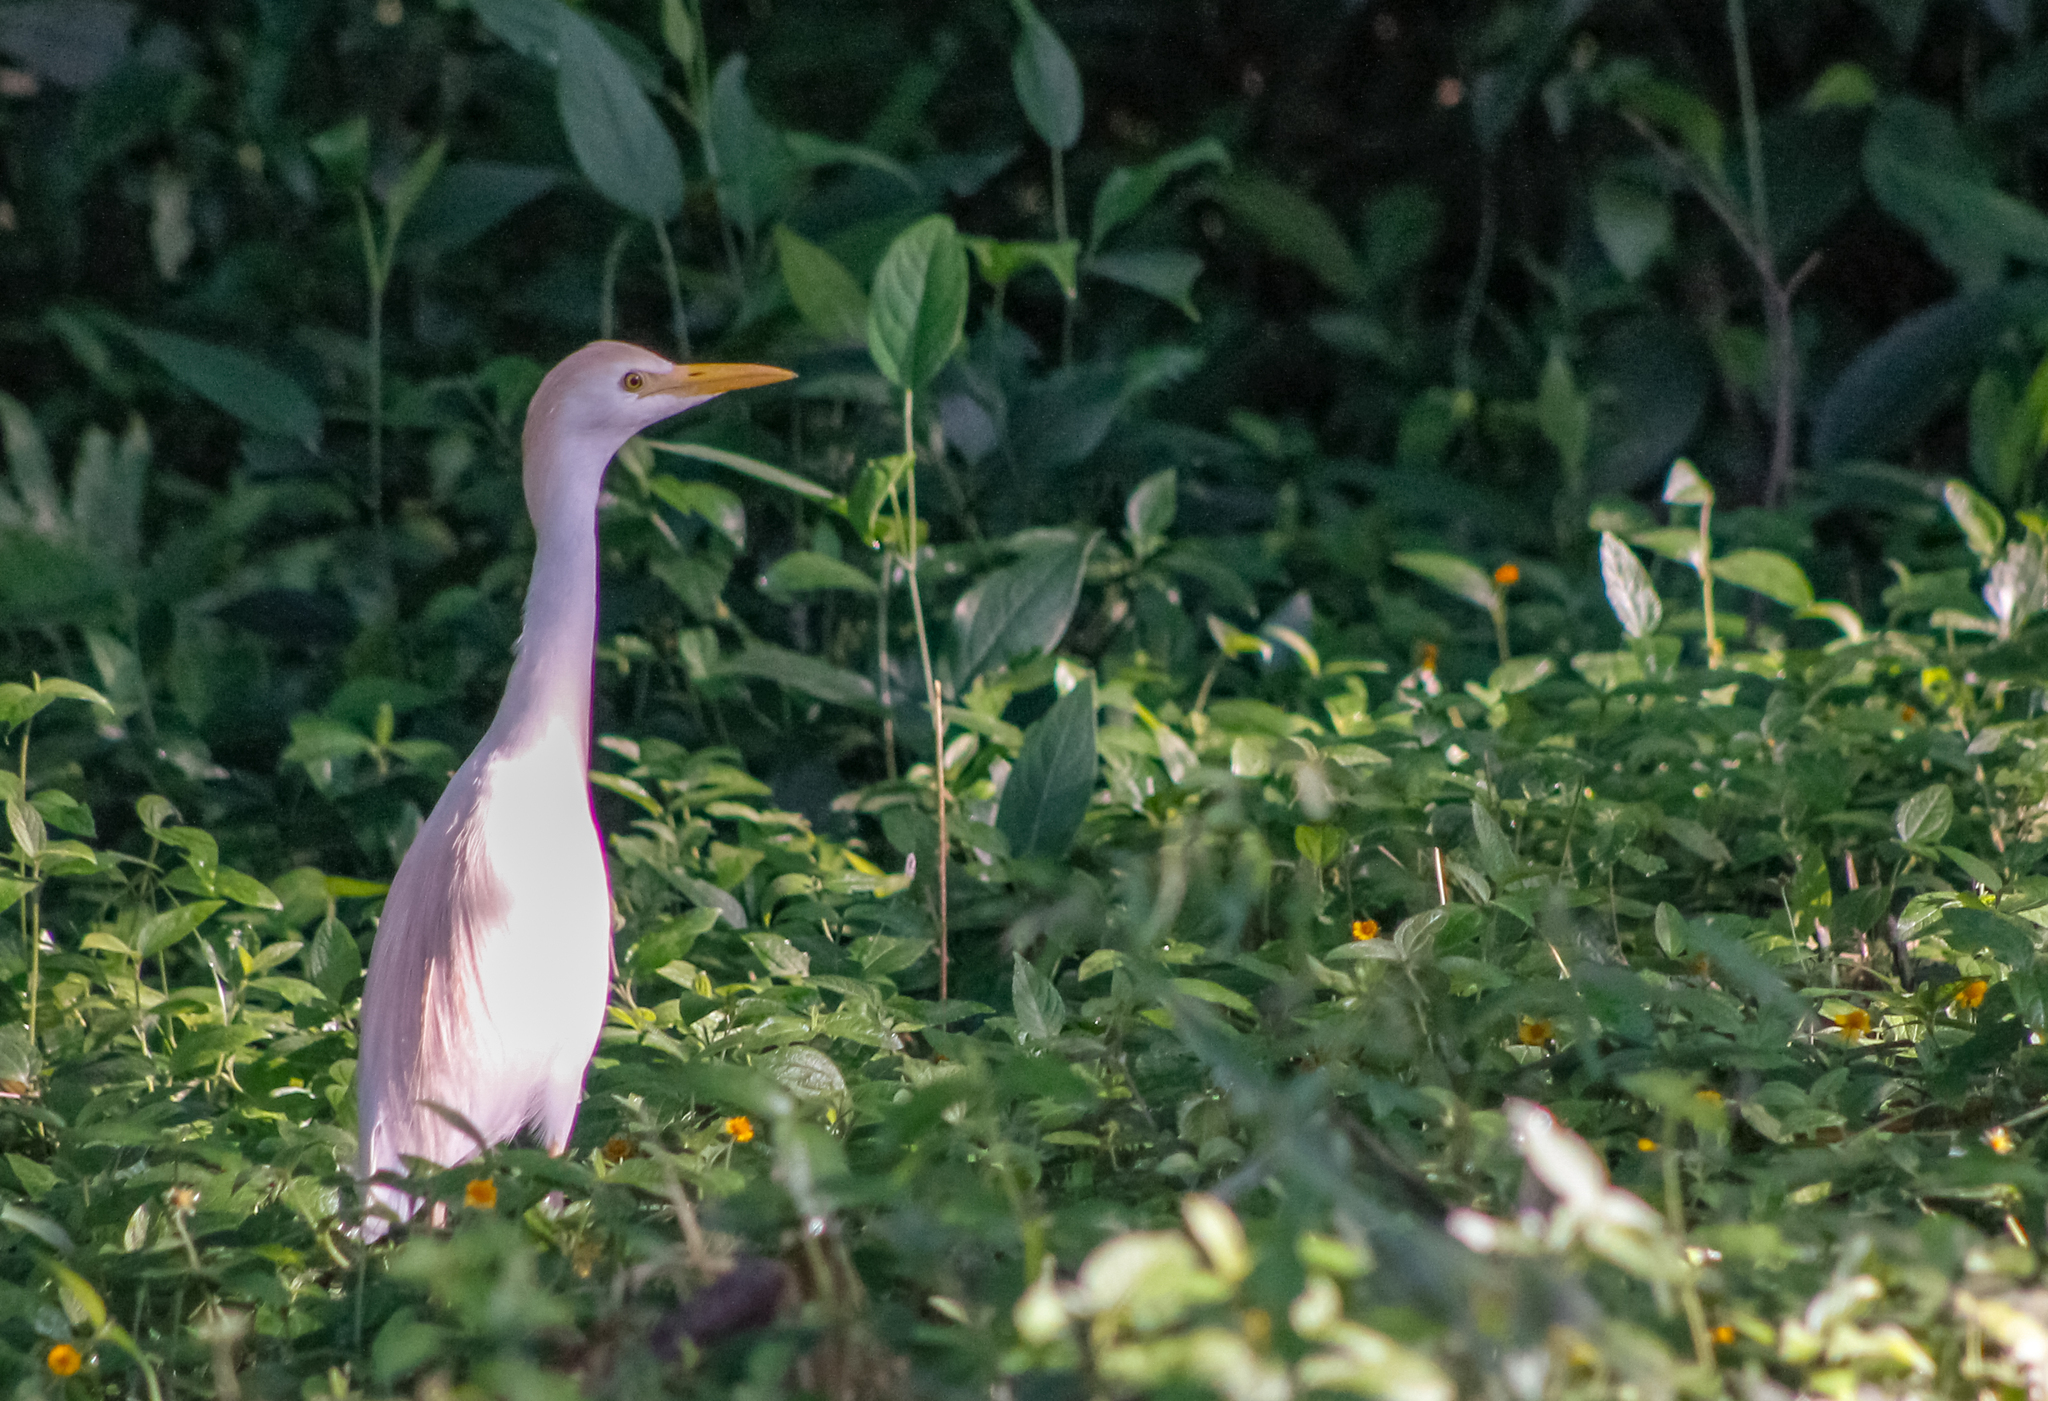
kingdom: Animalia
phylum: Chordata
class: Aves
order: Pelecaniformes
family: Ardeidae
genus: Bubulcus
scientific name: Bubulcus ibis
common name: Cattle egret
